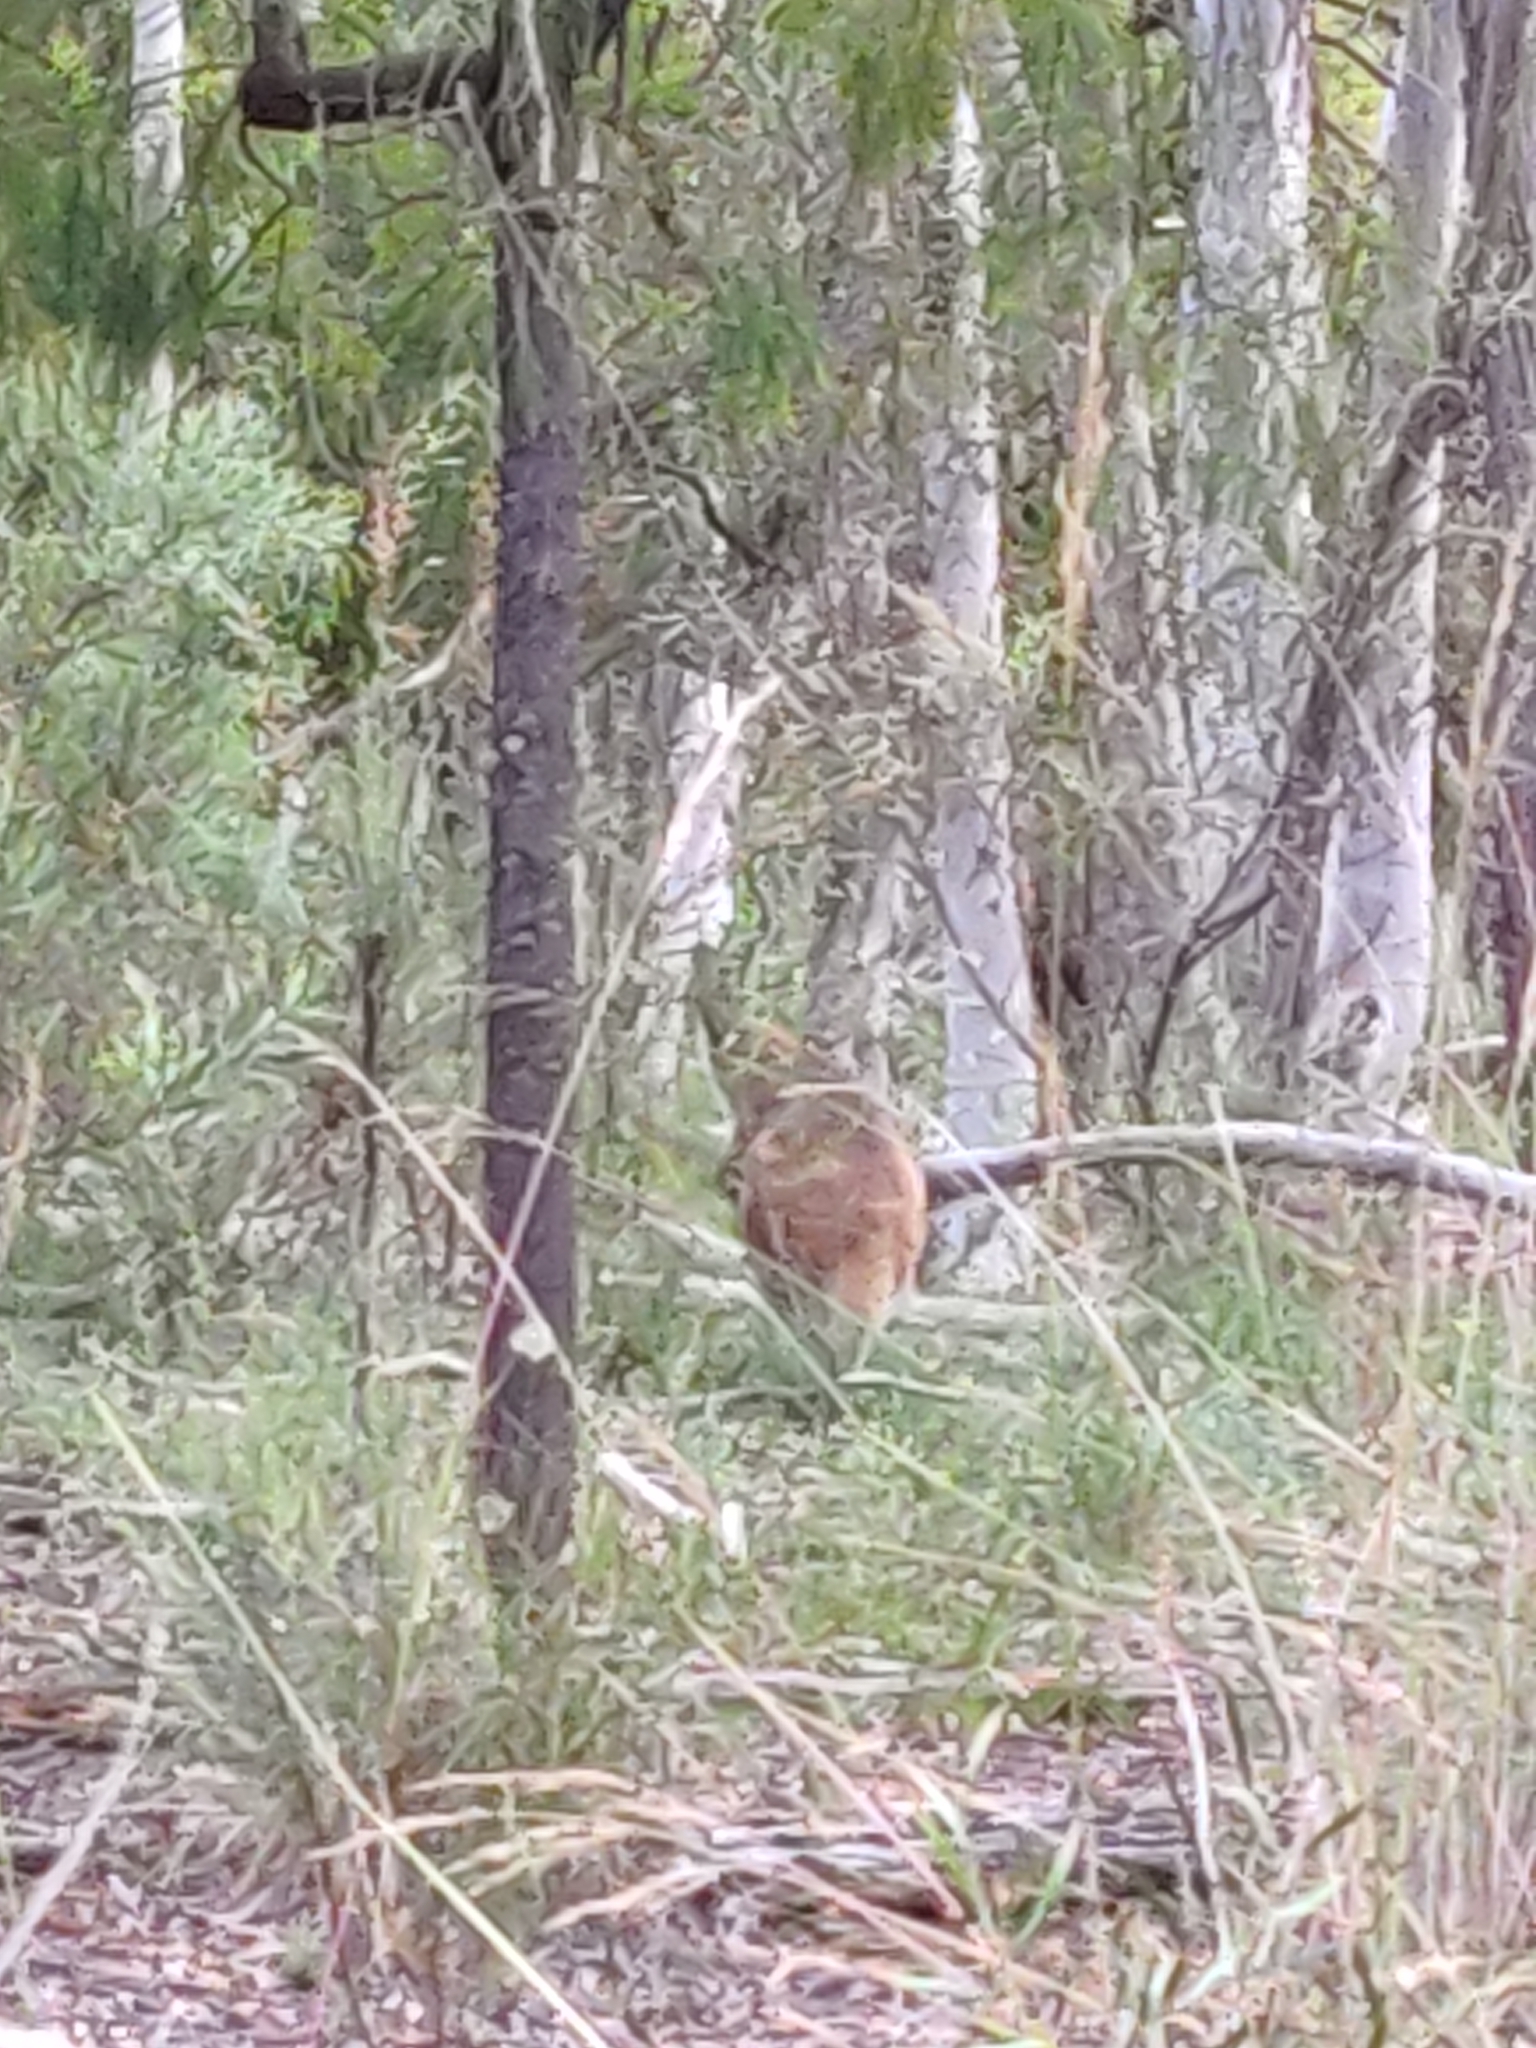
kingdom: Animalia
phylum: Chordata
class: Mammalia
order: Diprotodontia
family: Macropodidae
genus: Notamacropus
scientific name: Notamacropus rufogriseus
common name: Red-necked wallaby
